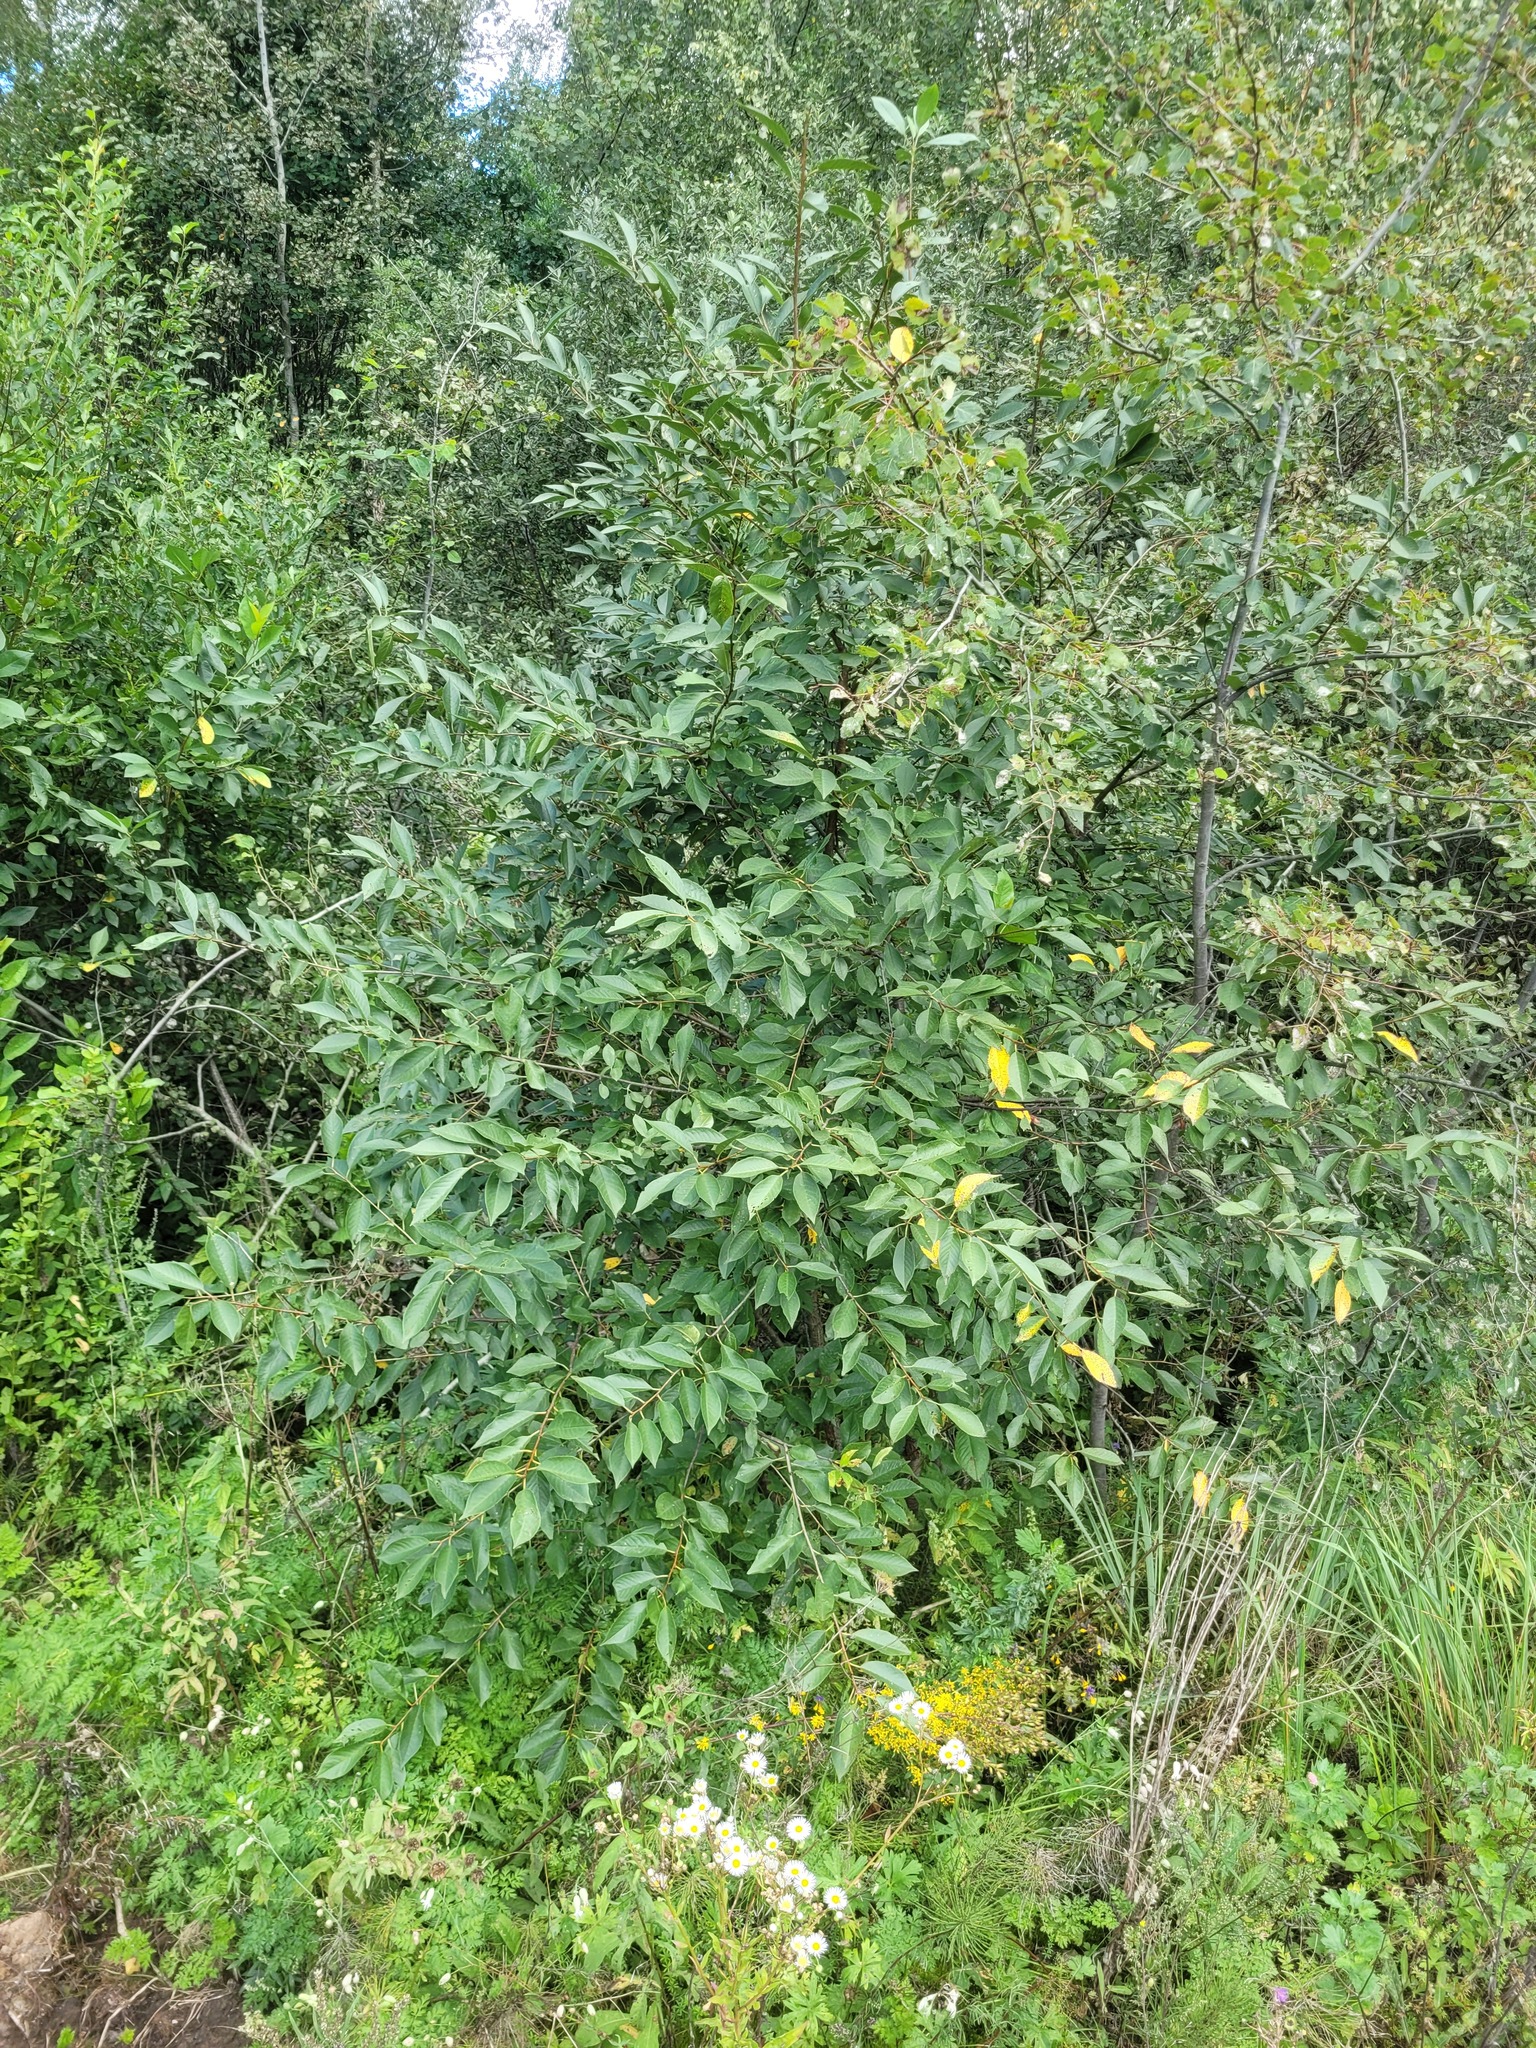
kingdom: Plantae
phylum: Tracheophyta
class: Magnoliopsida
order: Rosales
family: Rosaceae
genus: Prunus
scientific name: Prunus cerasus
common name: Morello cherry
